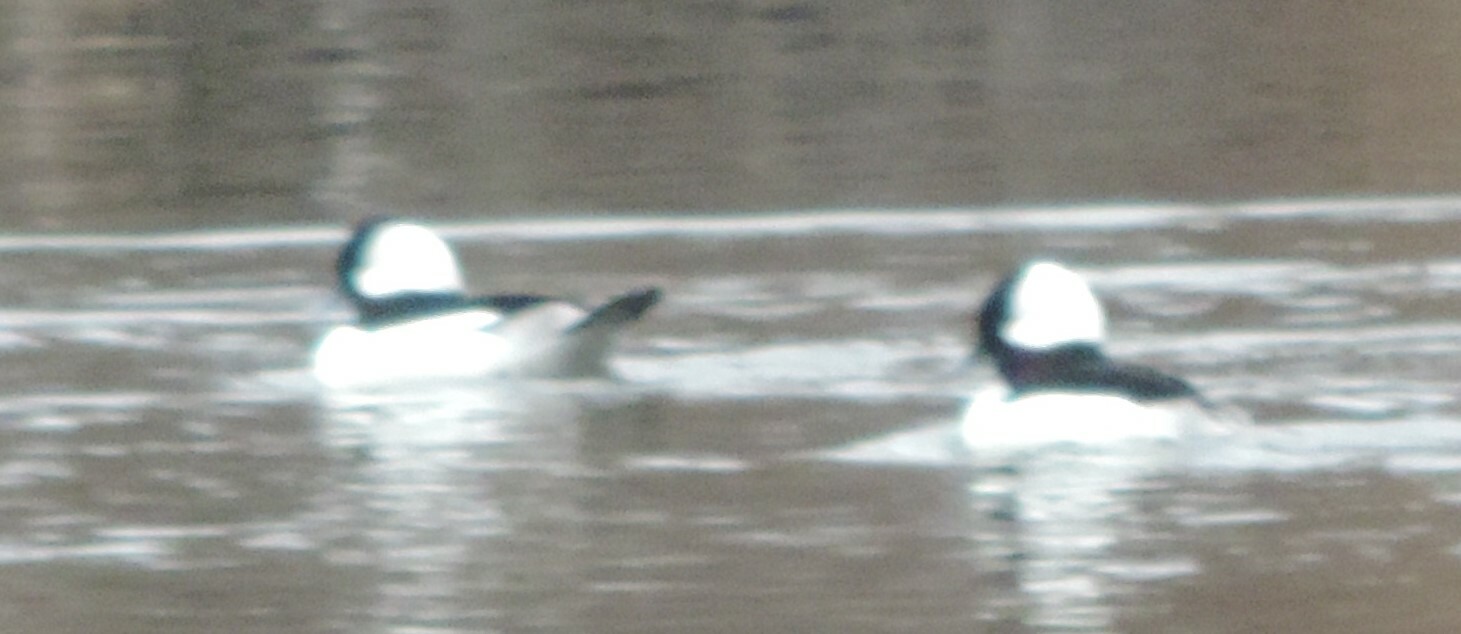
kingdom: Animalia
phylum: Chordata
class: Aves
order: Anseriformes
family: Anatidae
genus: Bucephala
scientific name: Bucephala albeola
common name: Bufflehead
